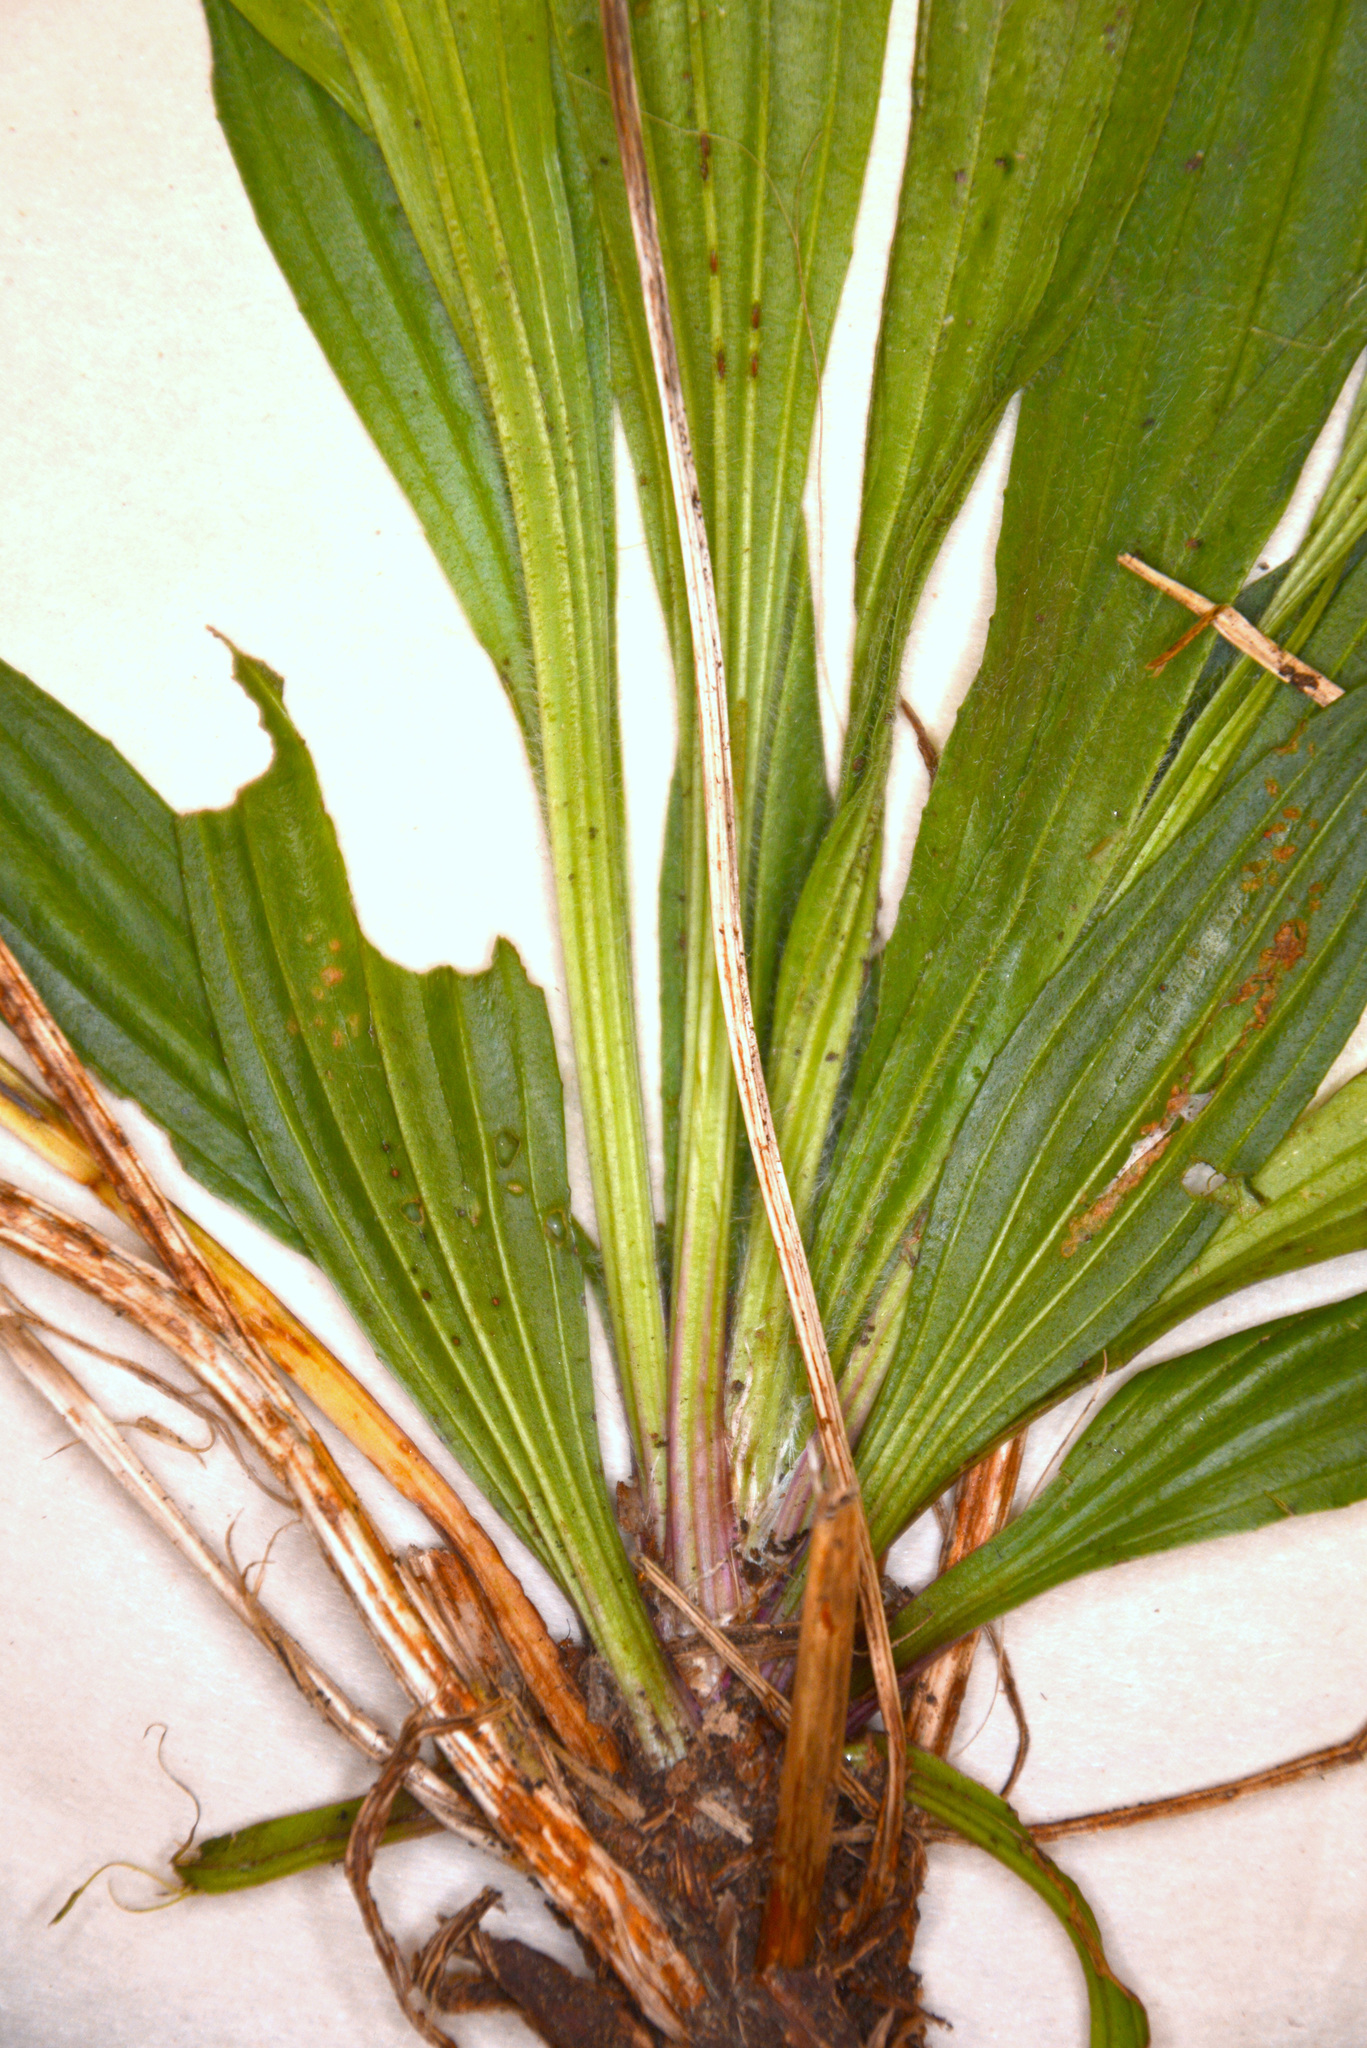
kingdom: Plantae
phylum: Tracheophyta
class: Magnoliopsida
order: Lamiales
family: Plantaginaceae
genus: Plantago
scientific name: Plantago lanceolata
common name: Ribwort plantain
